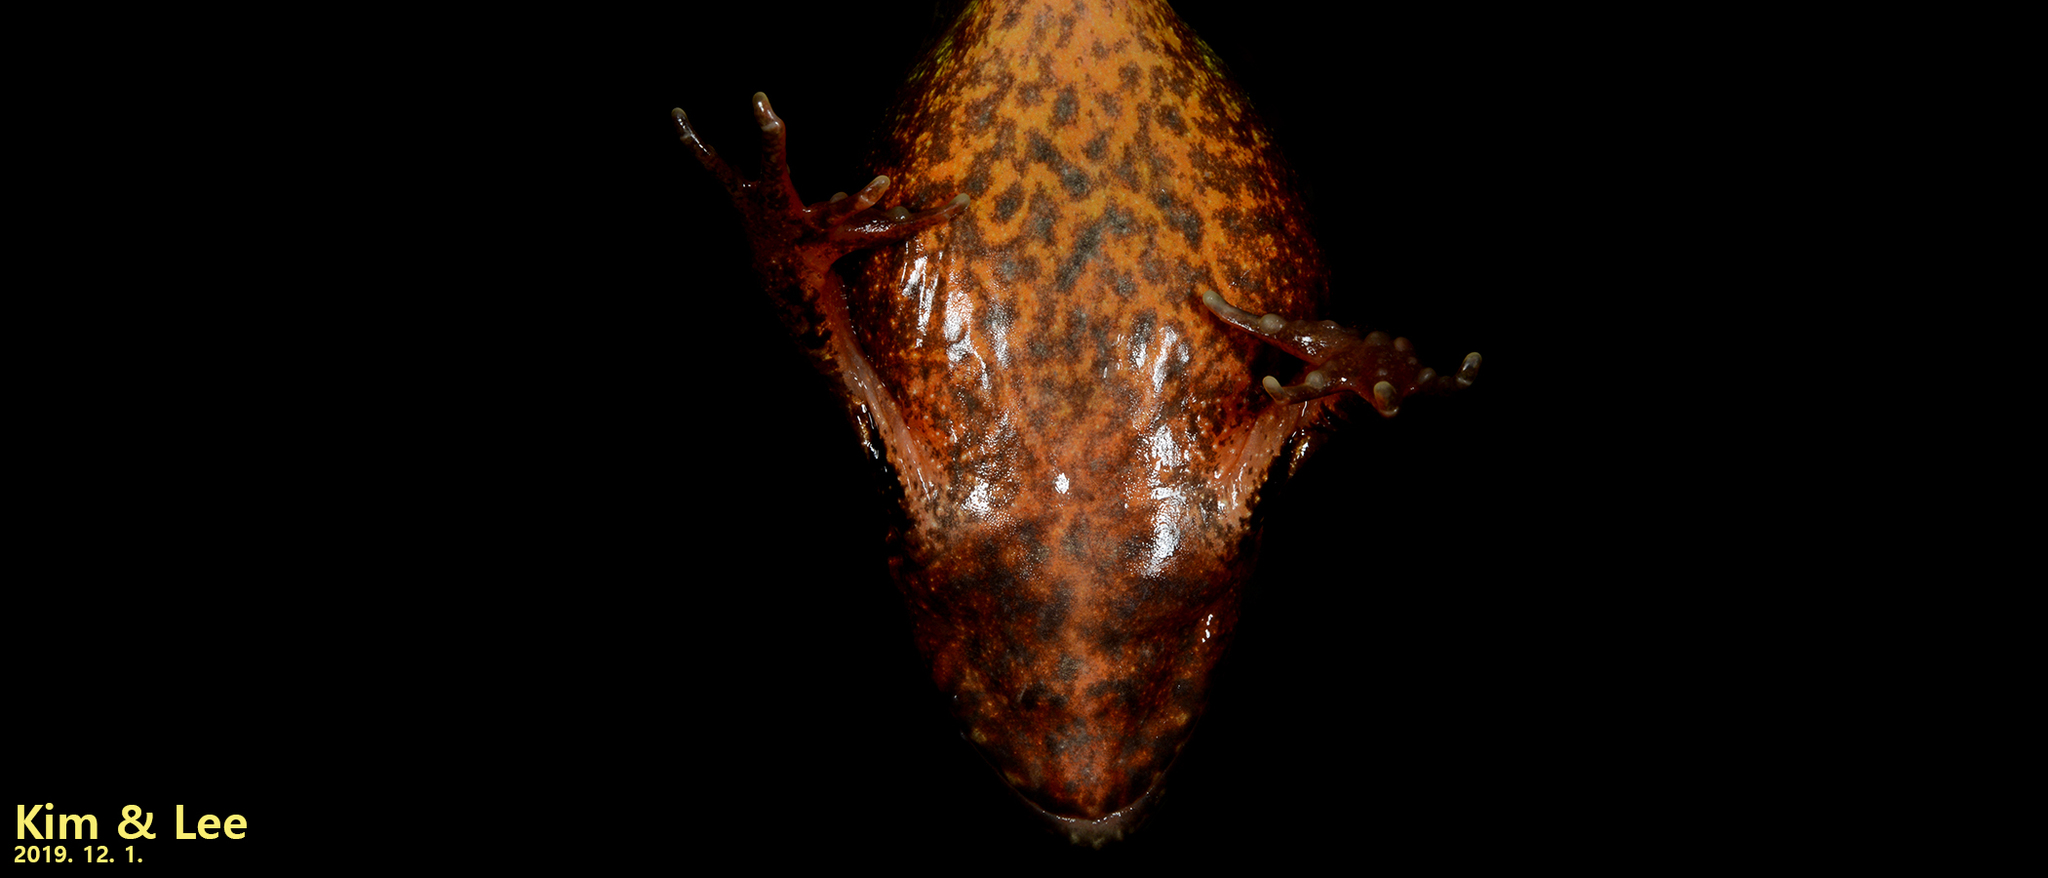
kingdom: Animalia
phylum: Chordata
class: Amphibia
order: Anura
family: Ranidae
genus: Rana
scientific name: Rana huanrenensis
